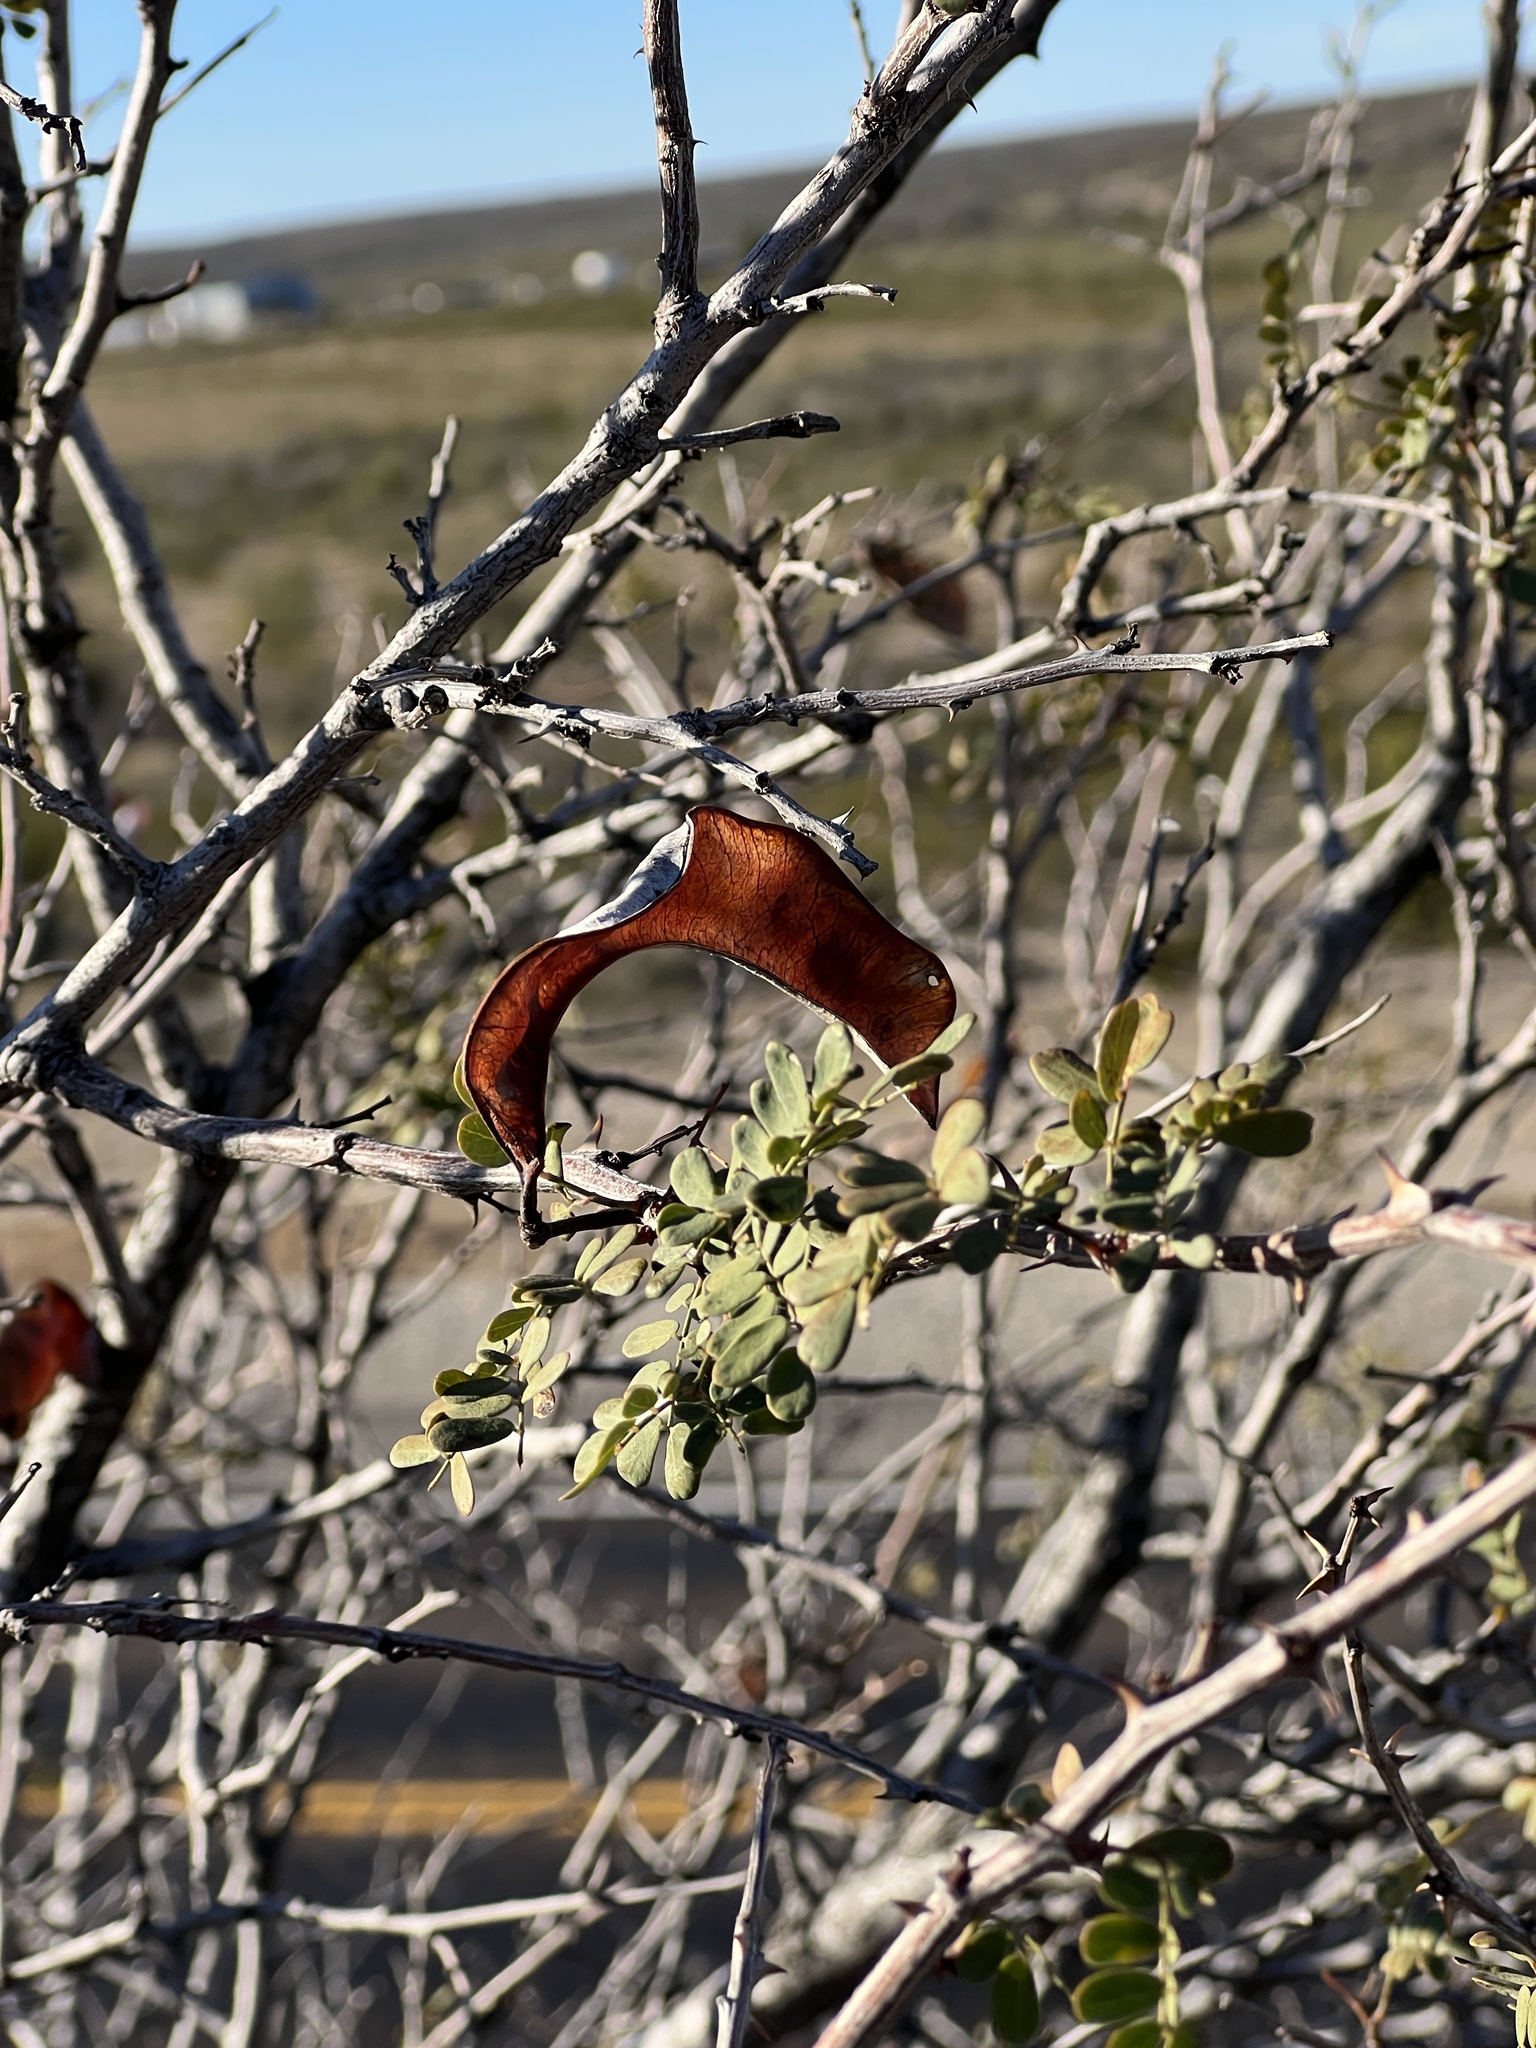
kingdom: Plantae
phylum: Tracheophyta
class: Magnoliopsida
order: Fabales
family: Fabaceae
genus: Senegalia
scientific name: Senegalia roemeriana
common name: Roemer's acacia
